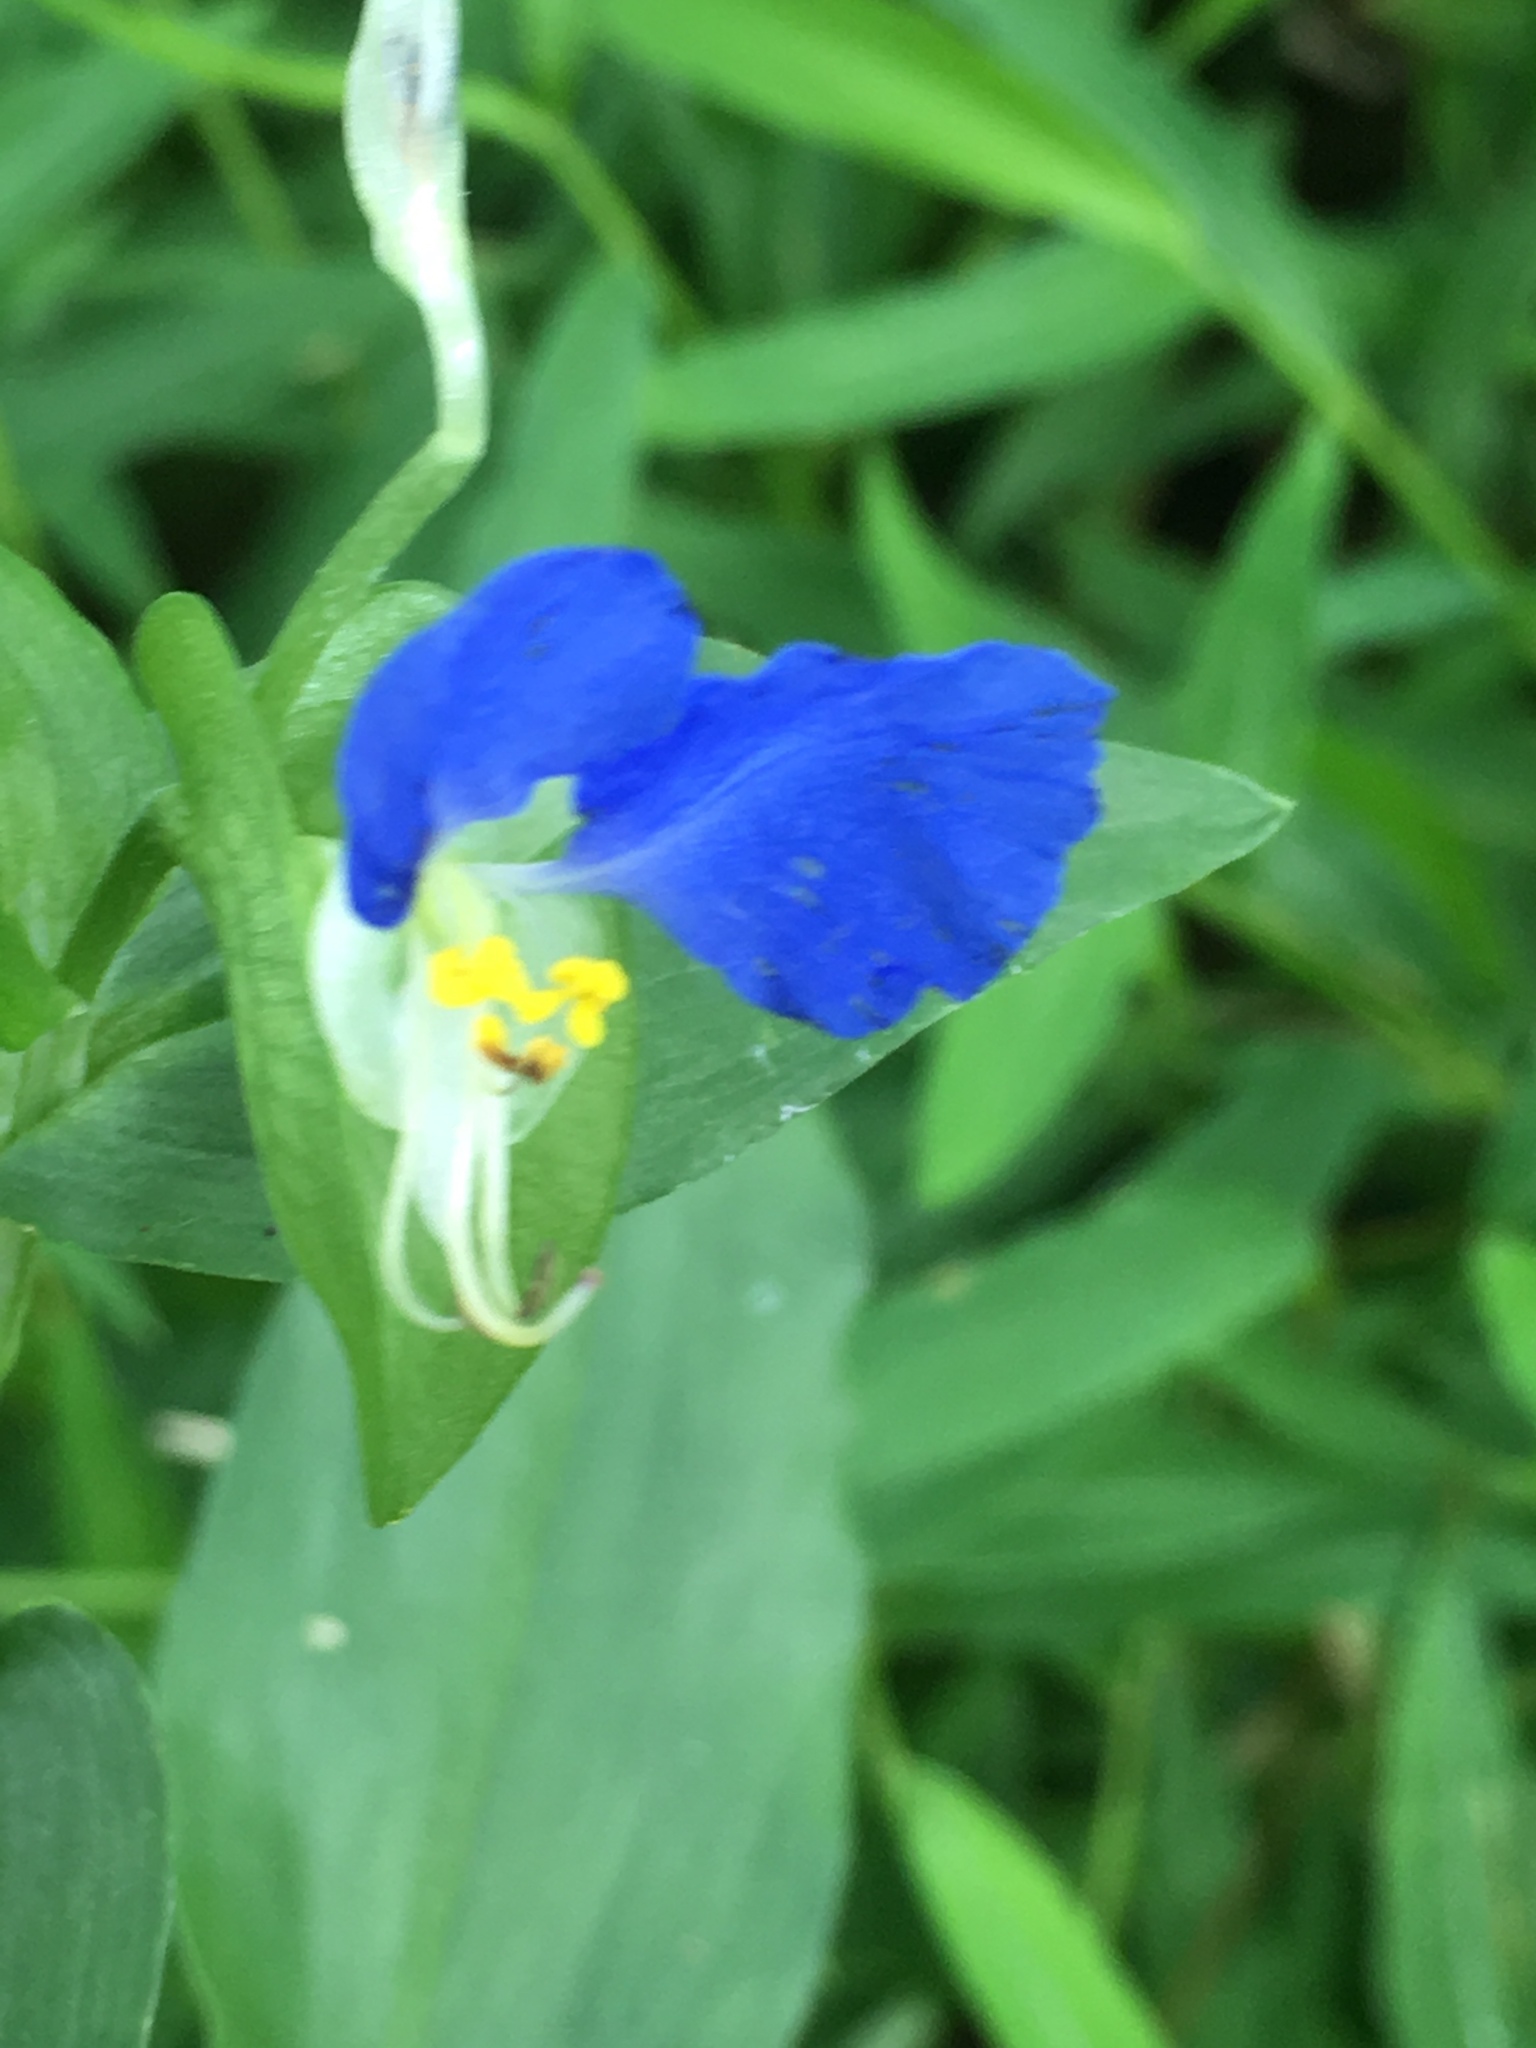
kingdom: Plantae
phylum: Tracheophyta
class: Liliopsida
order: Commelinales
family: Commelinaceae
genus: Commelina
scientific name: Commelina communis
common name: Asiatic dayflower
